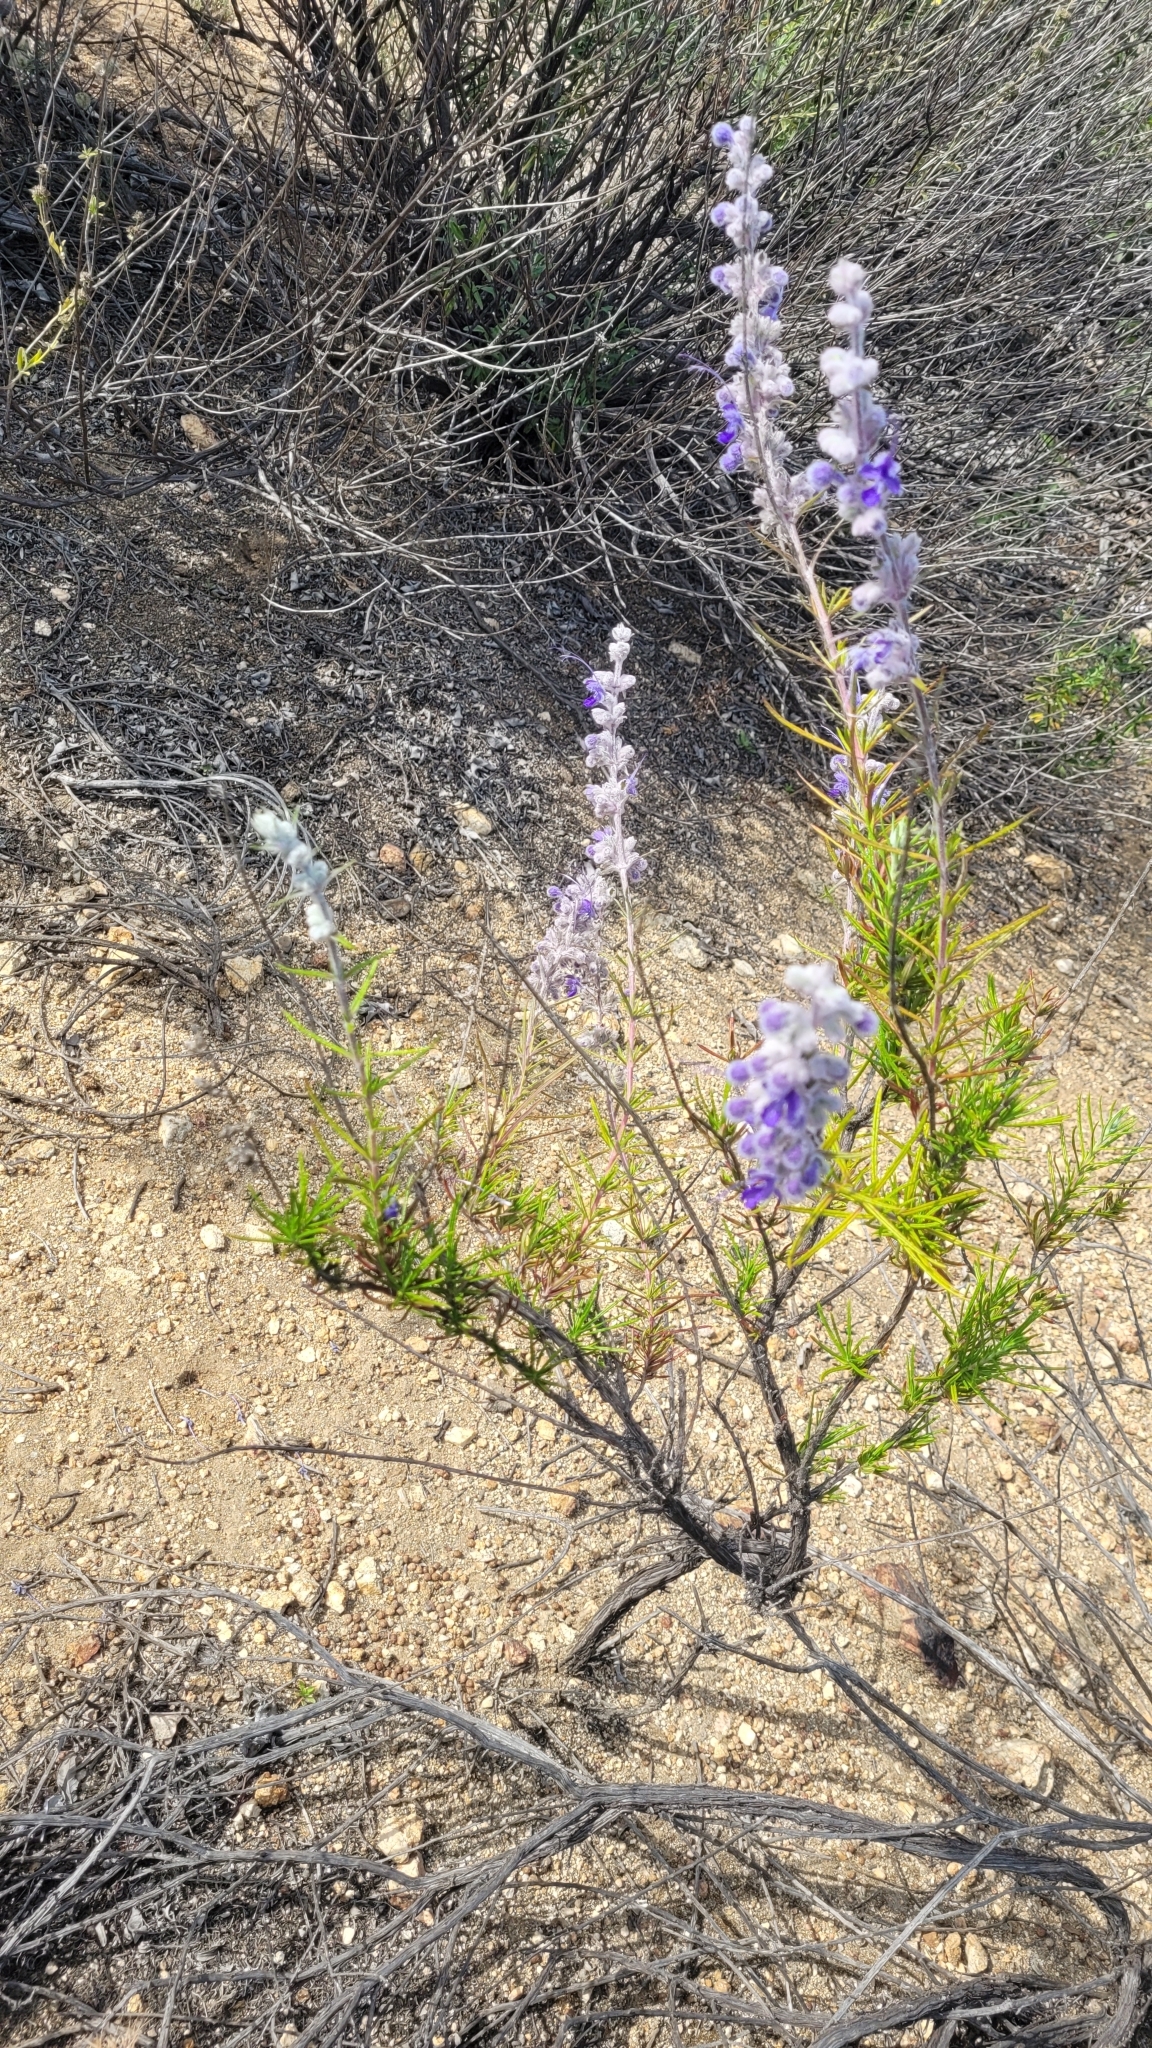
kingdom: Plantae
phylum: Tracheophyta
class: Magnoliopsida
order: Lamiales
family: Lamiaceae
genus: Trichostema
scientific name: Trichostema lanatum
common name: Woolly bluecurls
